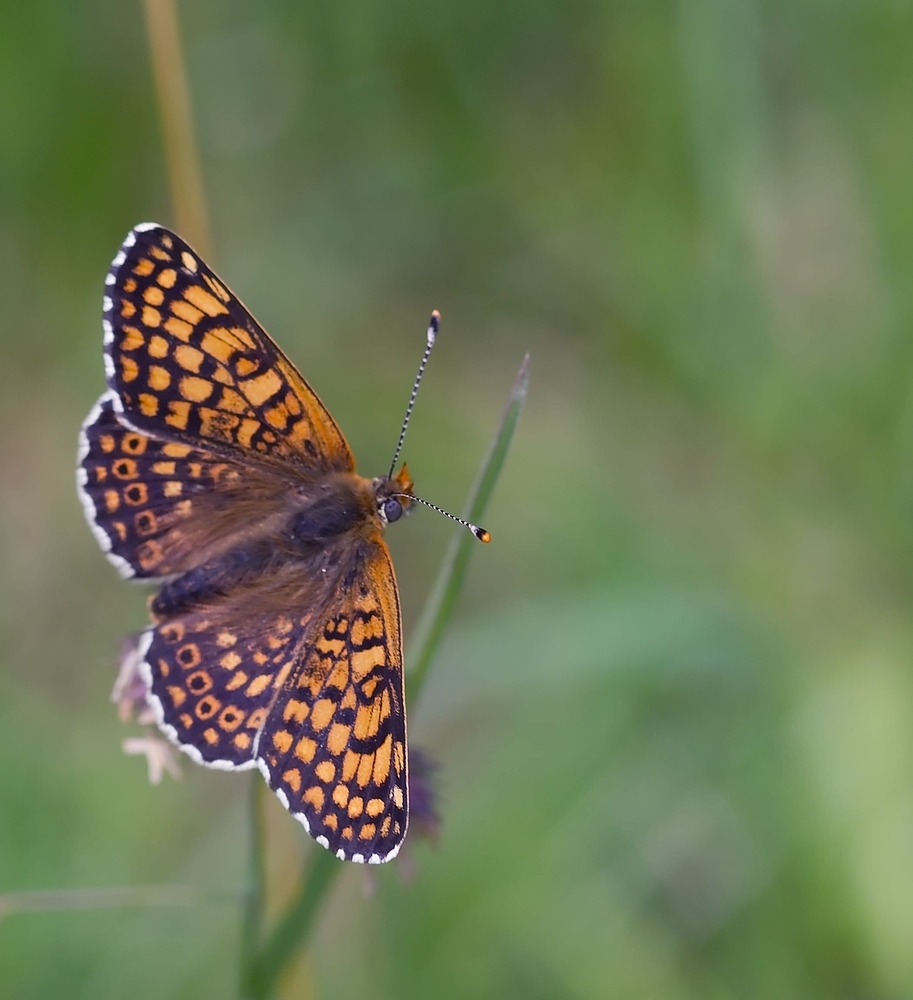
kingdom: Animalia
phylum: Arthropoda
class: Insecta
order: Lepidoptera
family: Nymphalidae
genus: Melitaea
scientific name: Melitaea cinxia
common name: Glanville fritillary
